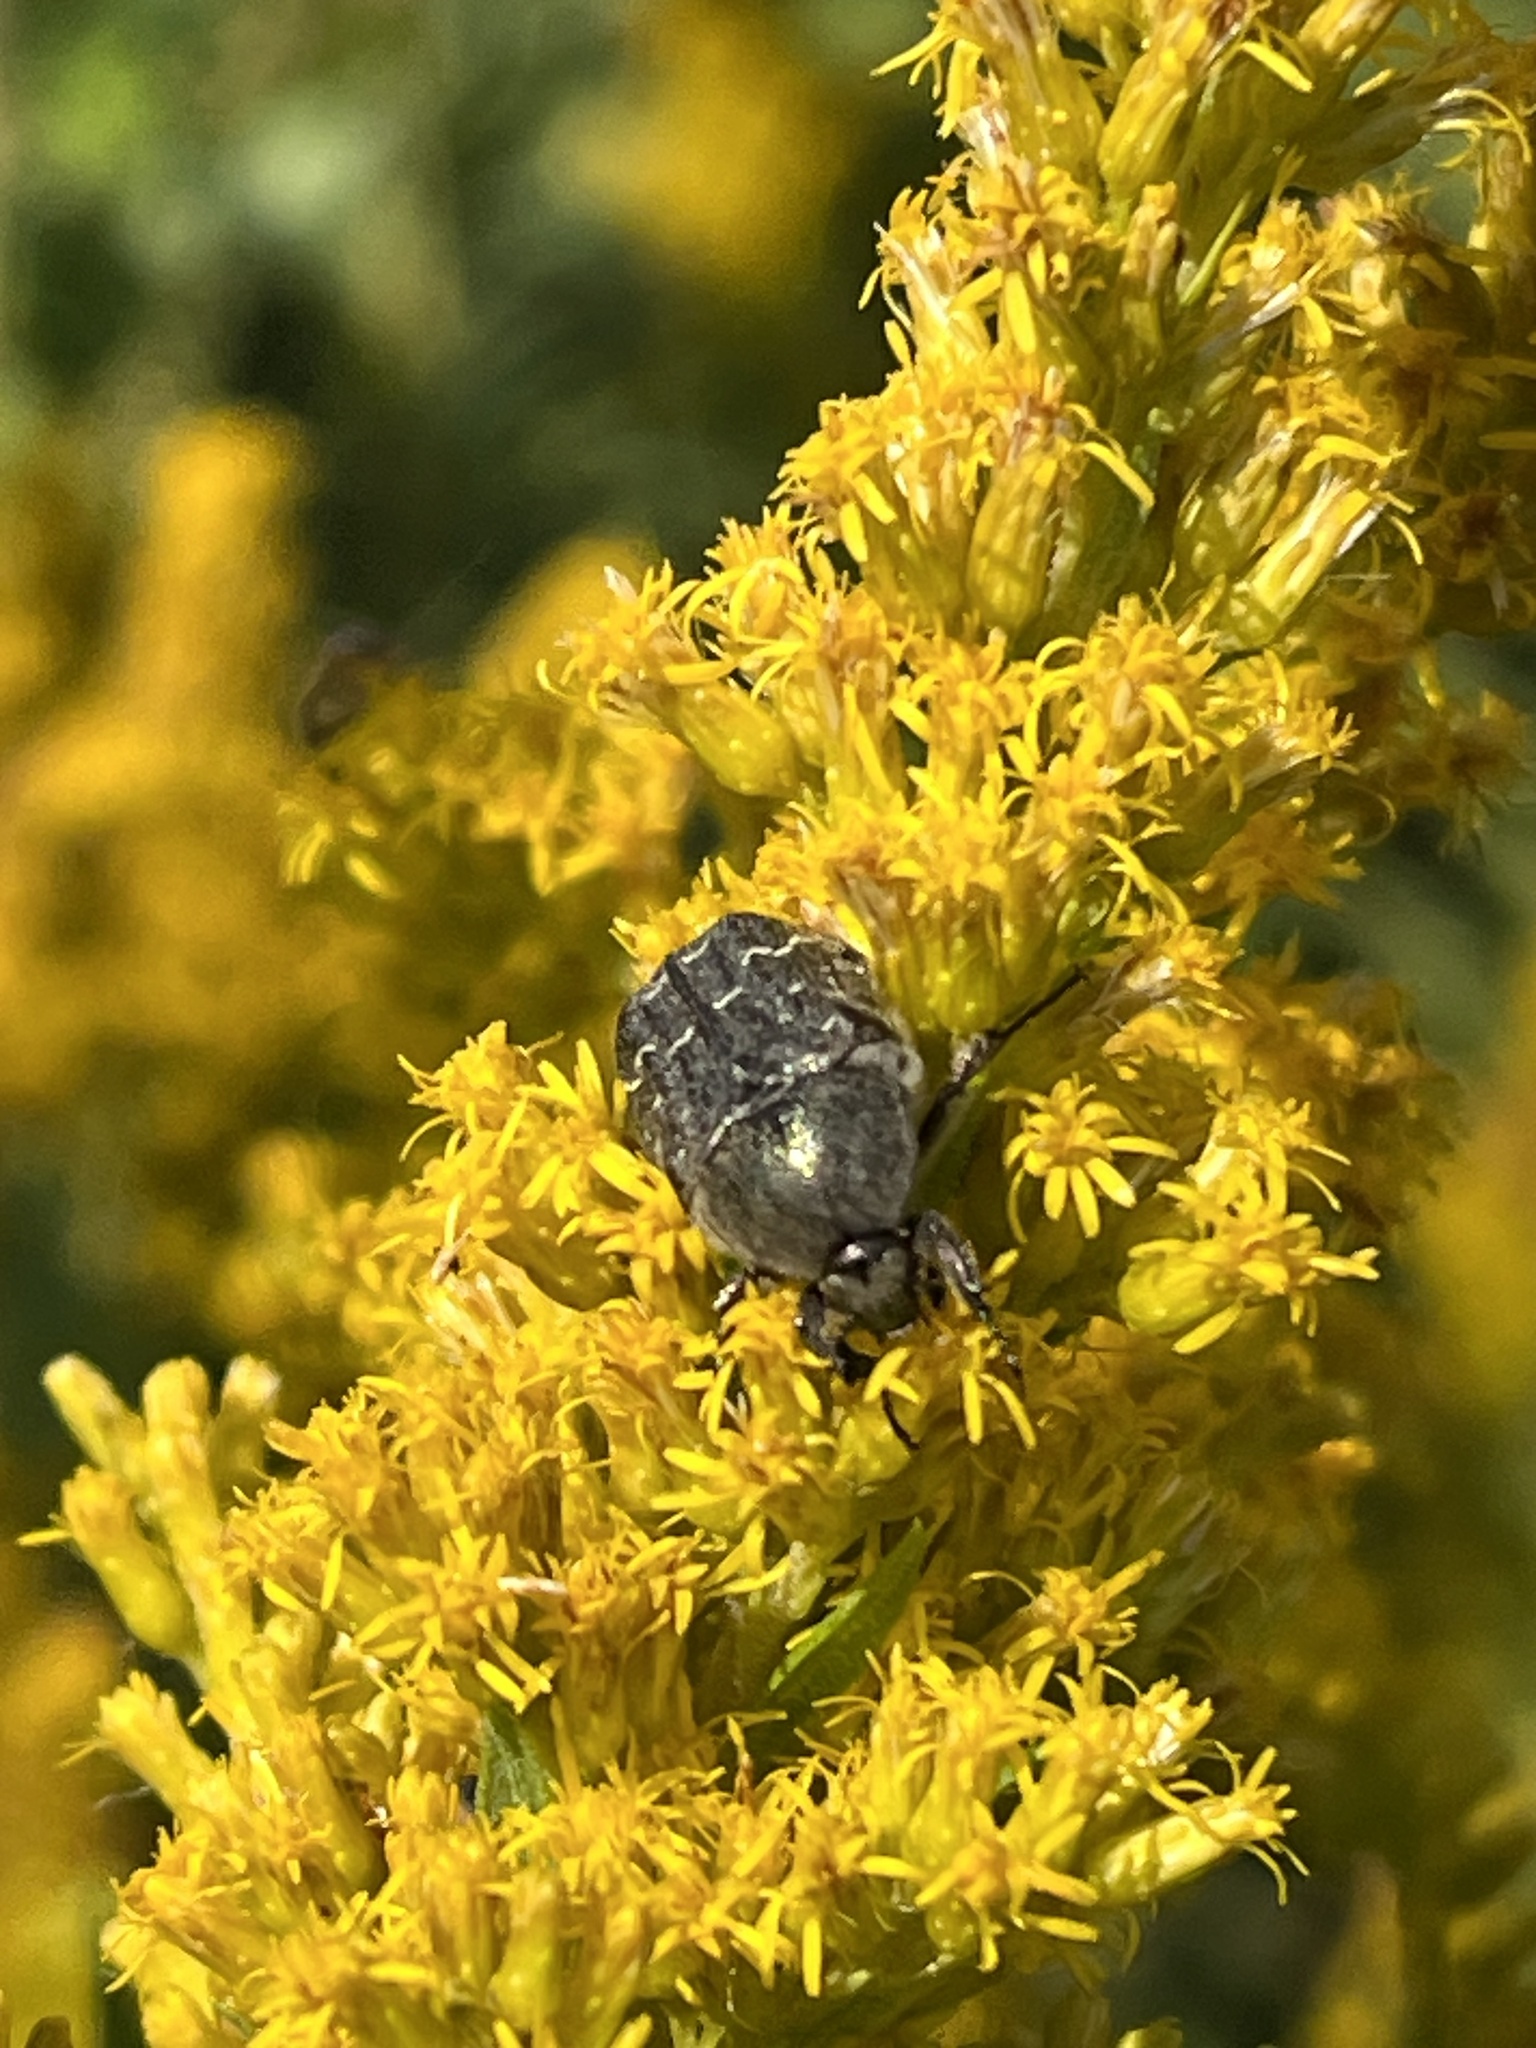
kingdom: Animalia
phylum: Arthropoda
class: Insecta
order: Coleoptera
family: Scarabaeidae
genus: Euphoria
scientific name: Euphoria sepulcralis
